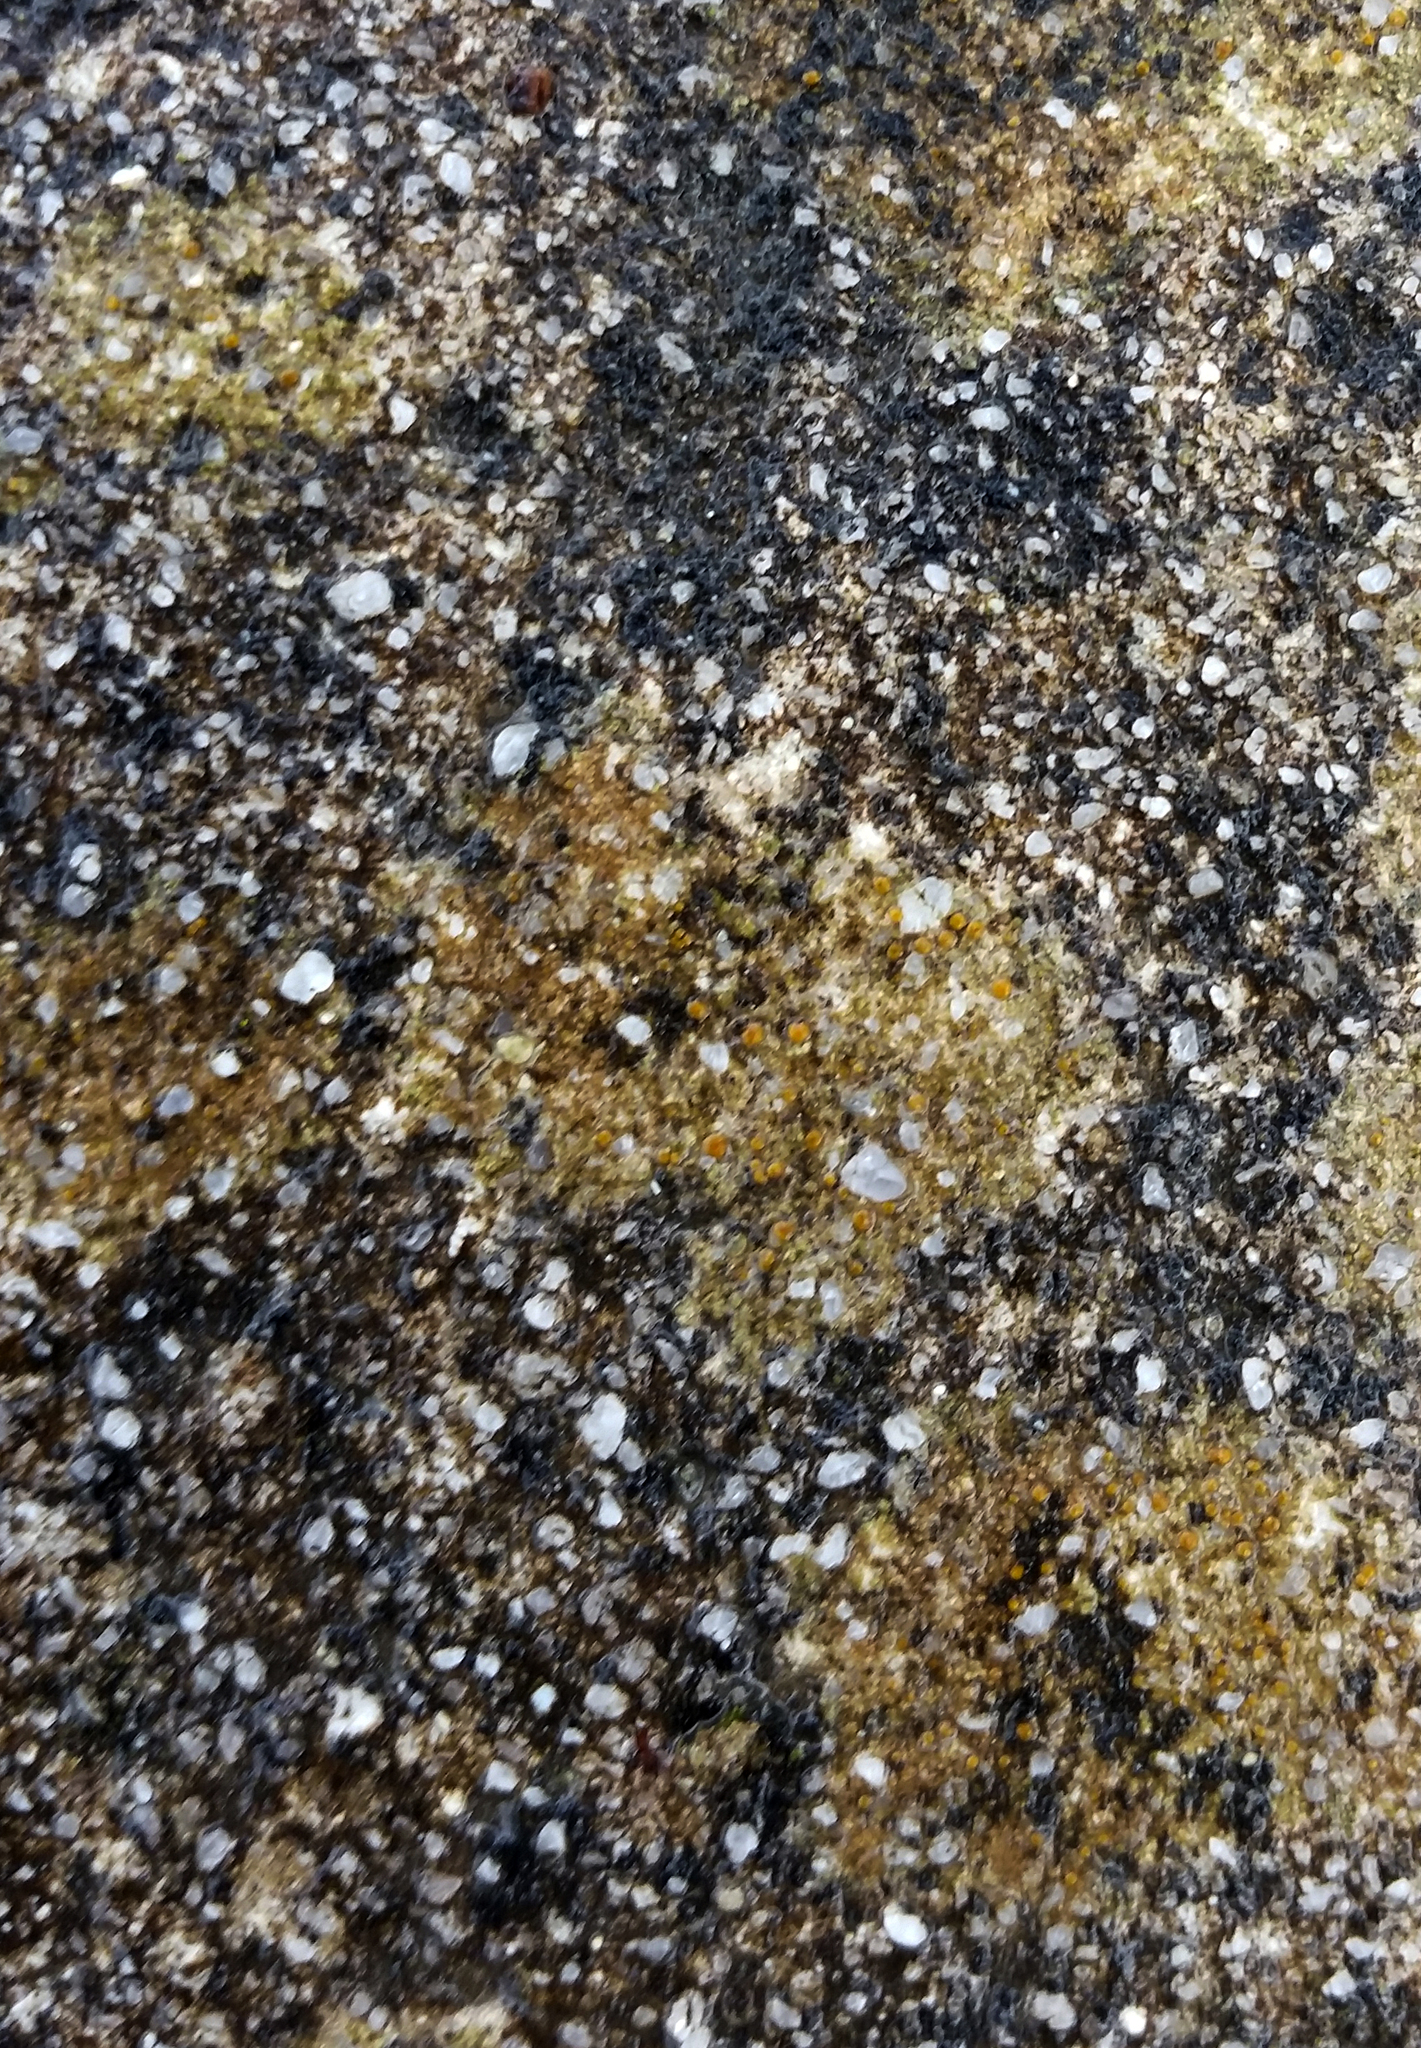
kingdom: Fungi
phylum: Ascomycota
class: Lecanoromycetes
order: Lecanorales
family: Psoraceae
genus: Protoblastenia
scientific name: Protoblastenia rupestris
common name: Chewing gum lichen
